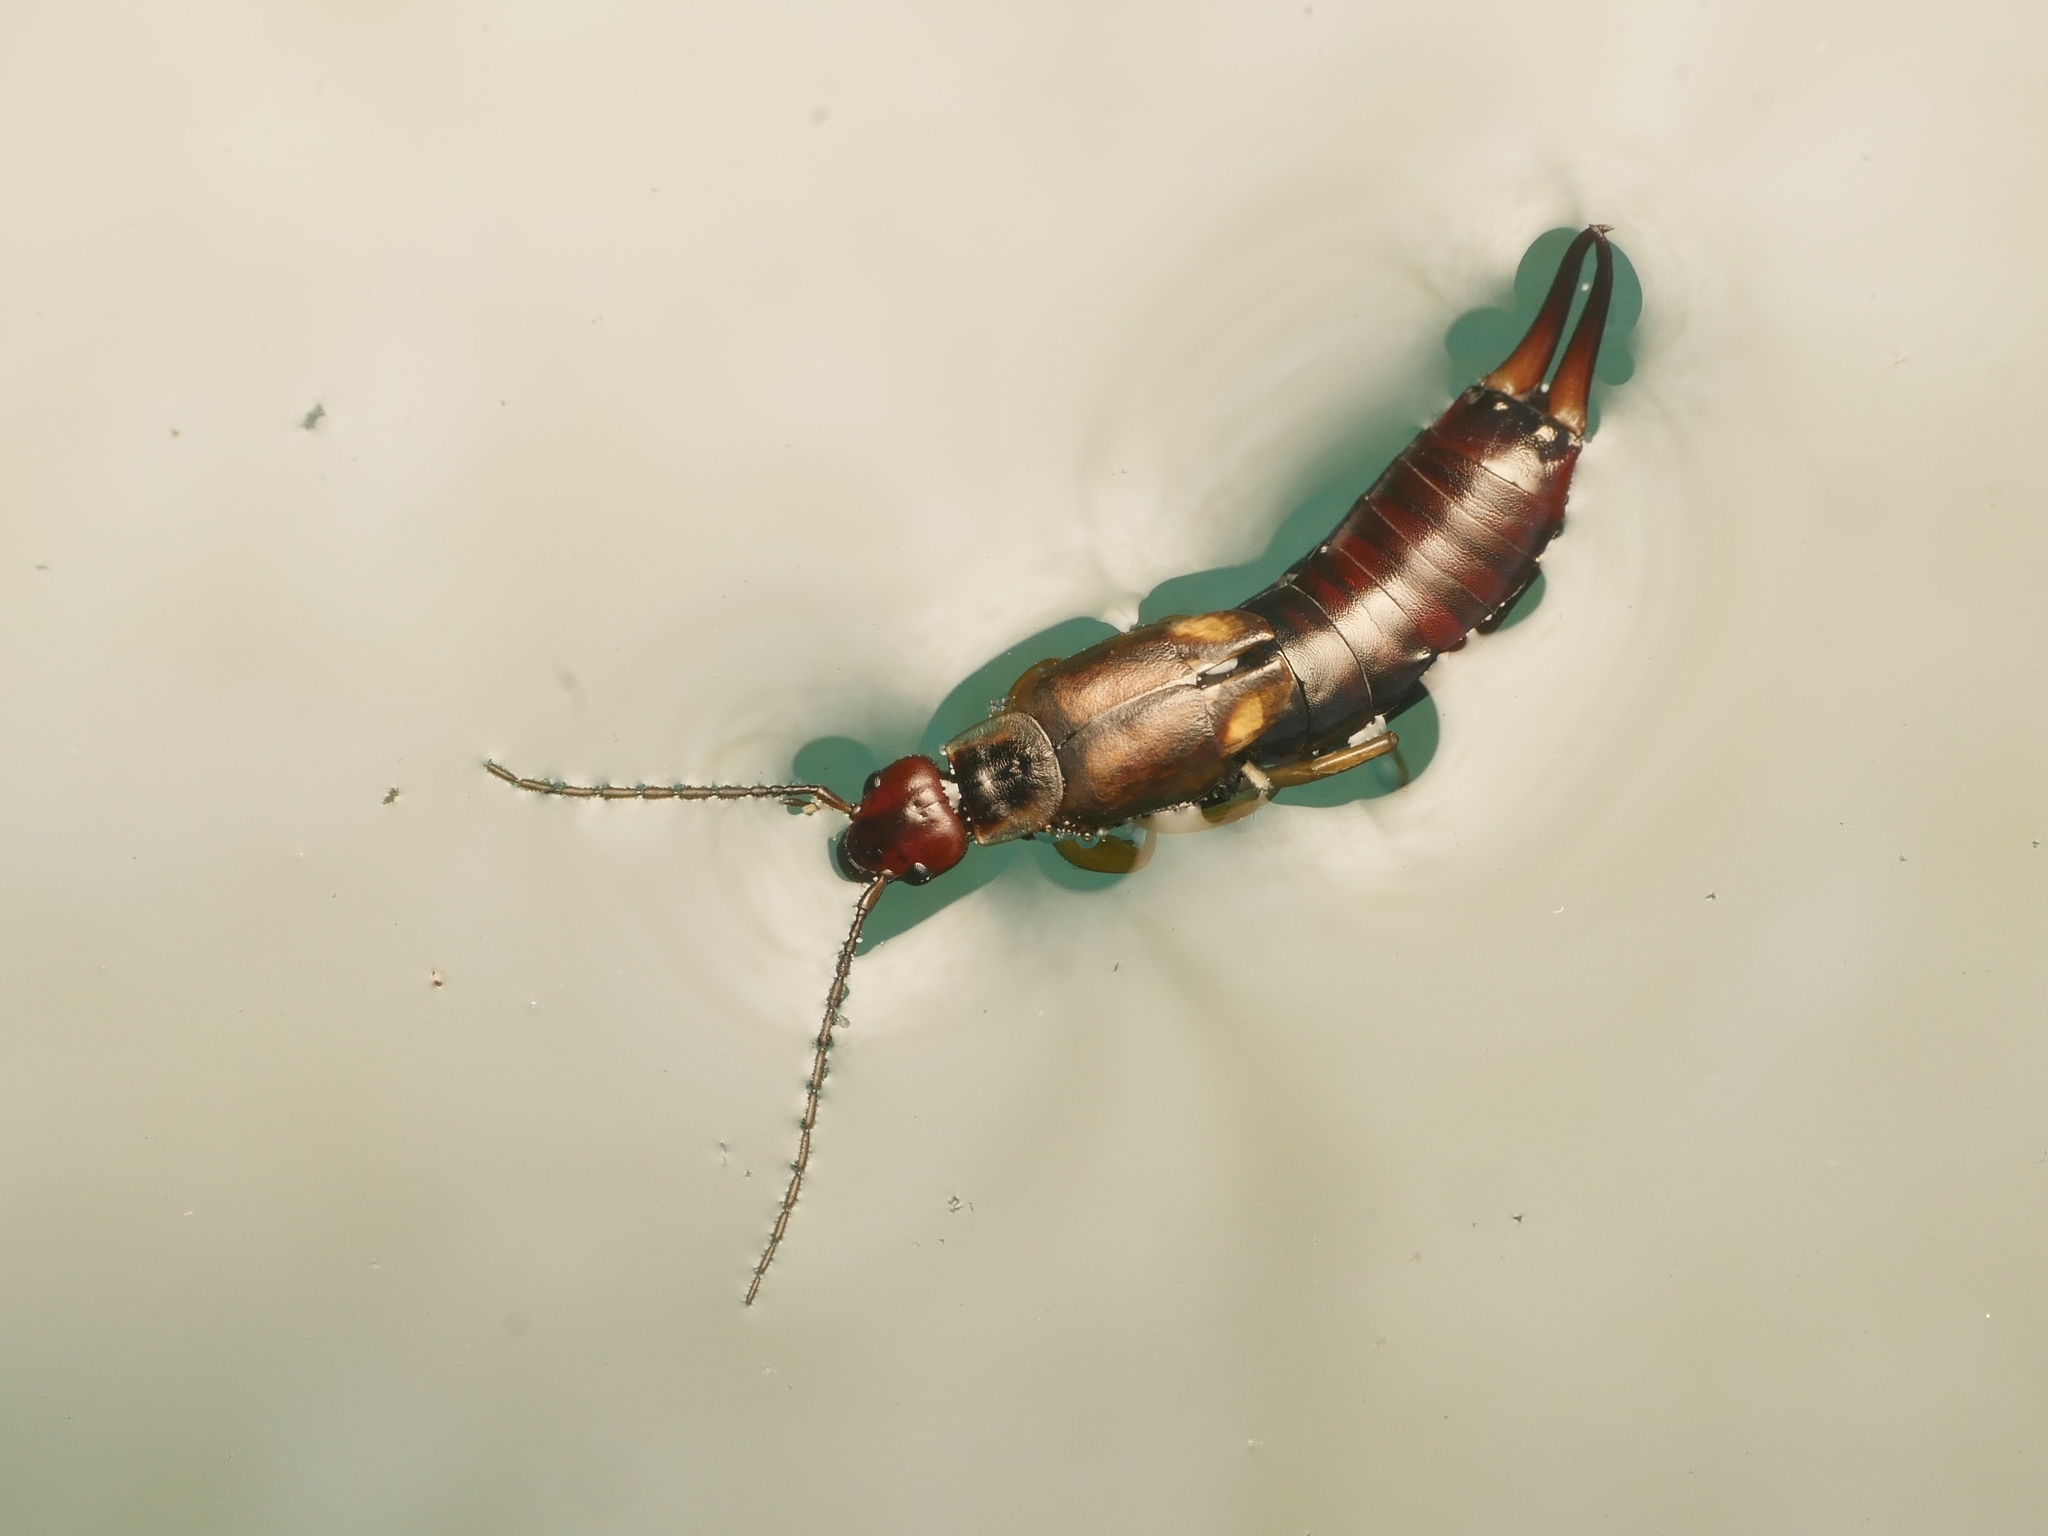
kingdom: Animalia
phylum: Arthropoda
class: Insecta
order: Dermaptera
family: Forficulidae
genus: Forficula
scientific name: Forficula
